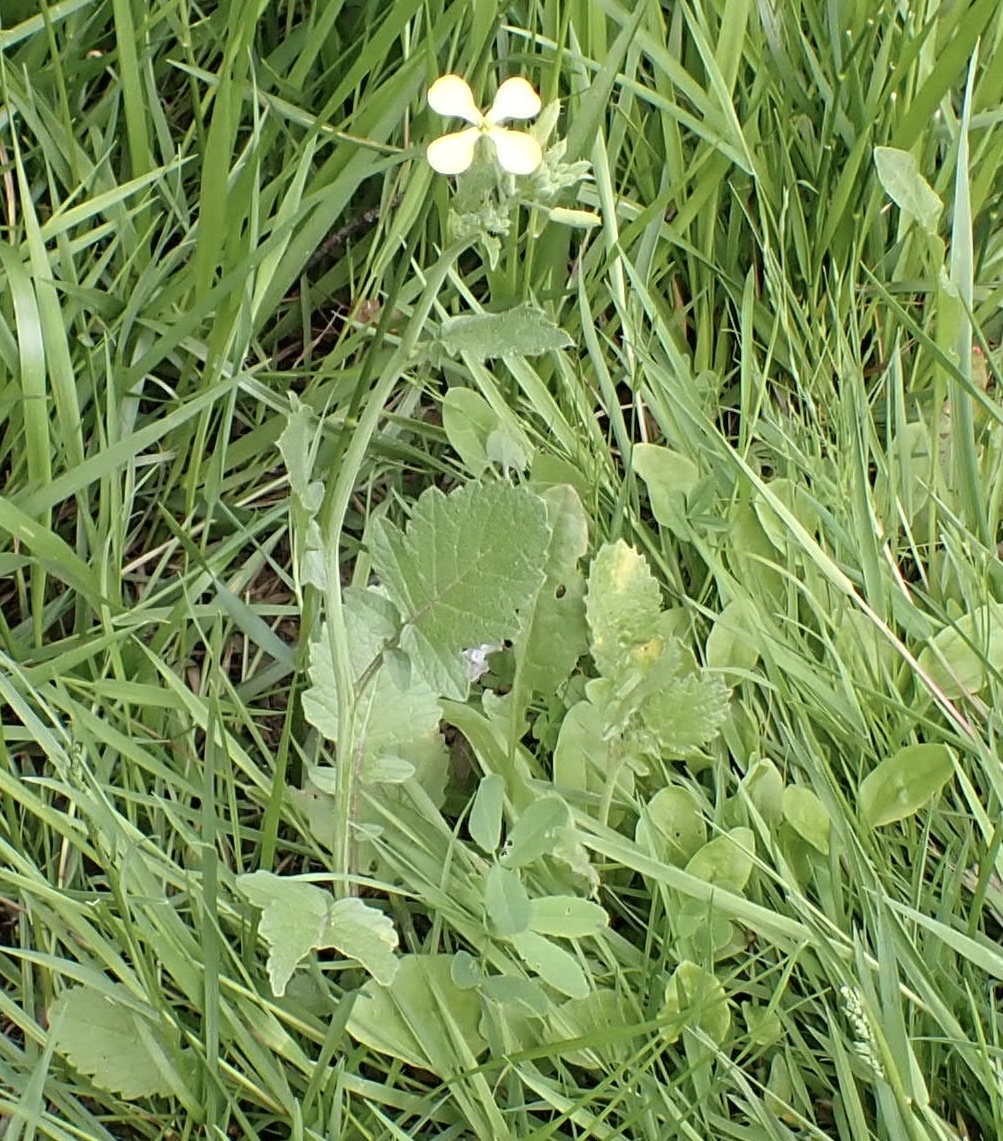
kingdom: Plantae
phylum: Tracheophyta
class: Magnoliopsida
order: Brassicales
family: Brassicaceae
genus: Raphanus
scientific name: Raphanus raphanistrum
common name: Wild radish
